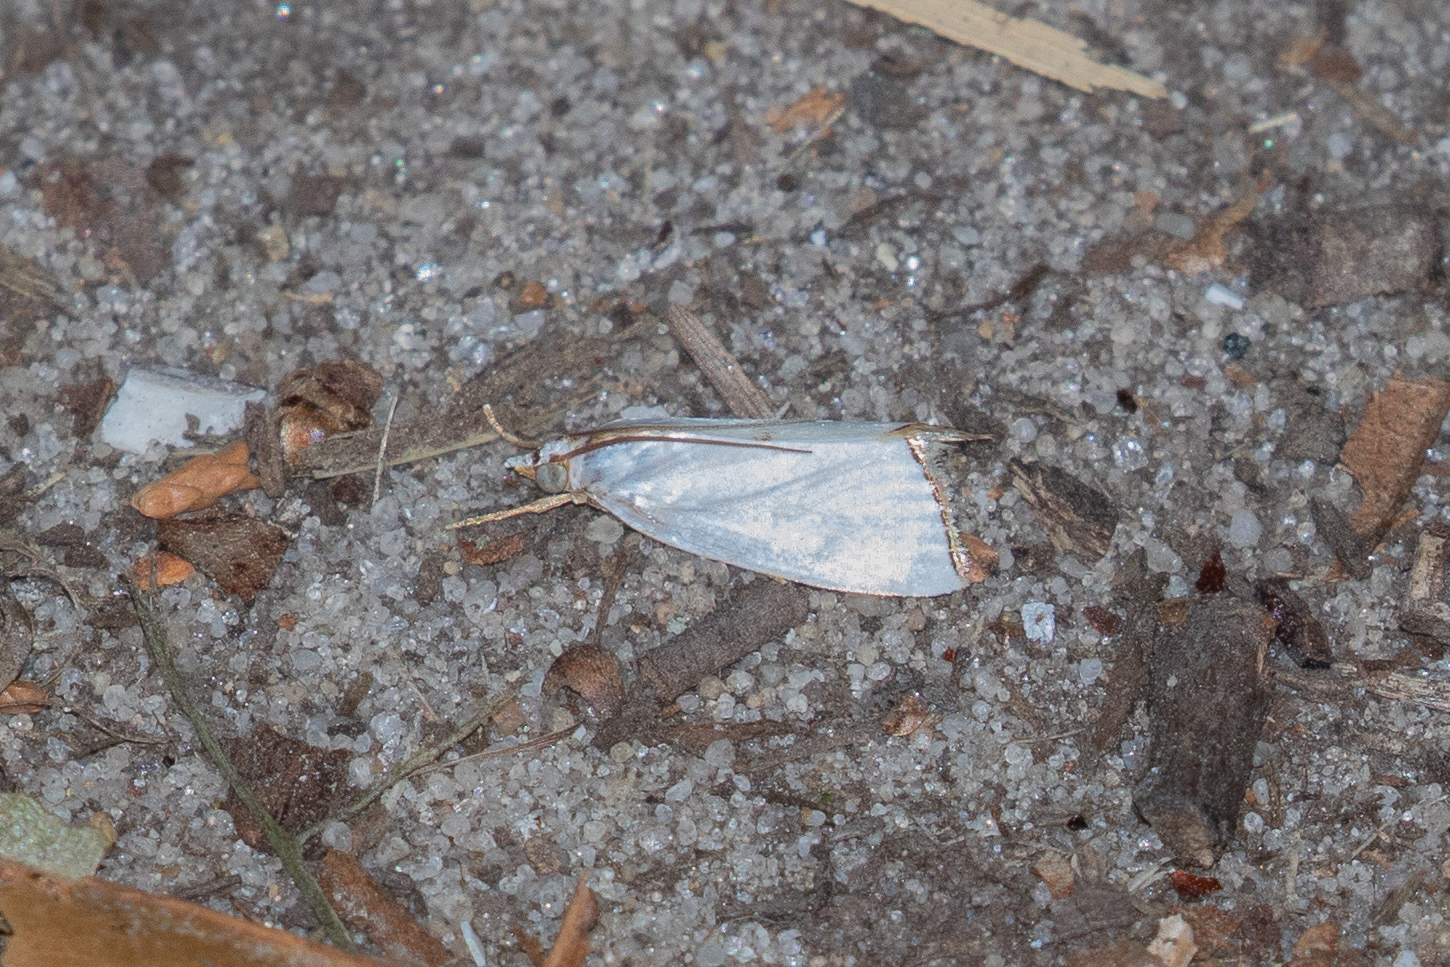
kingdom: Animalia
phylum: Arthropoda
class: Insecta
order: Lepidoptera
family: Crambidae
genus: Argyria
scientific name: Argyria nivalis
